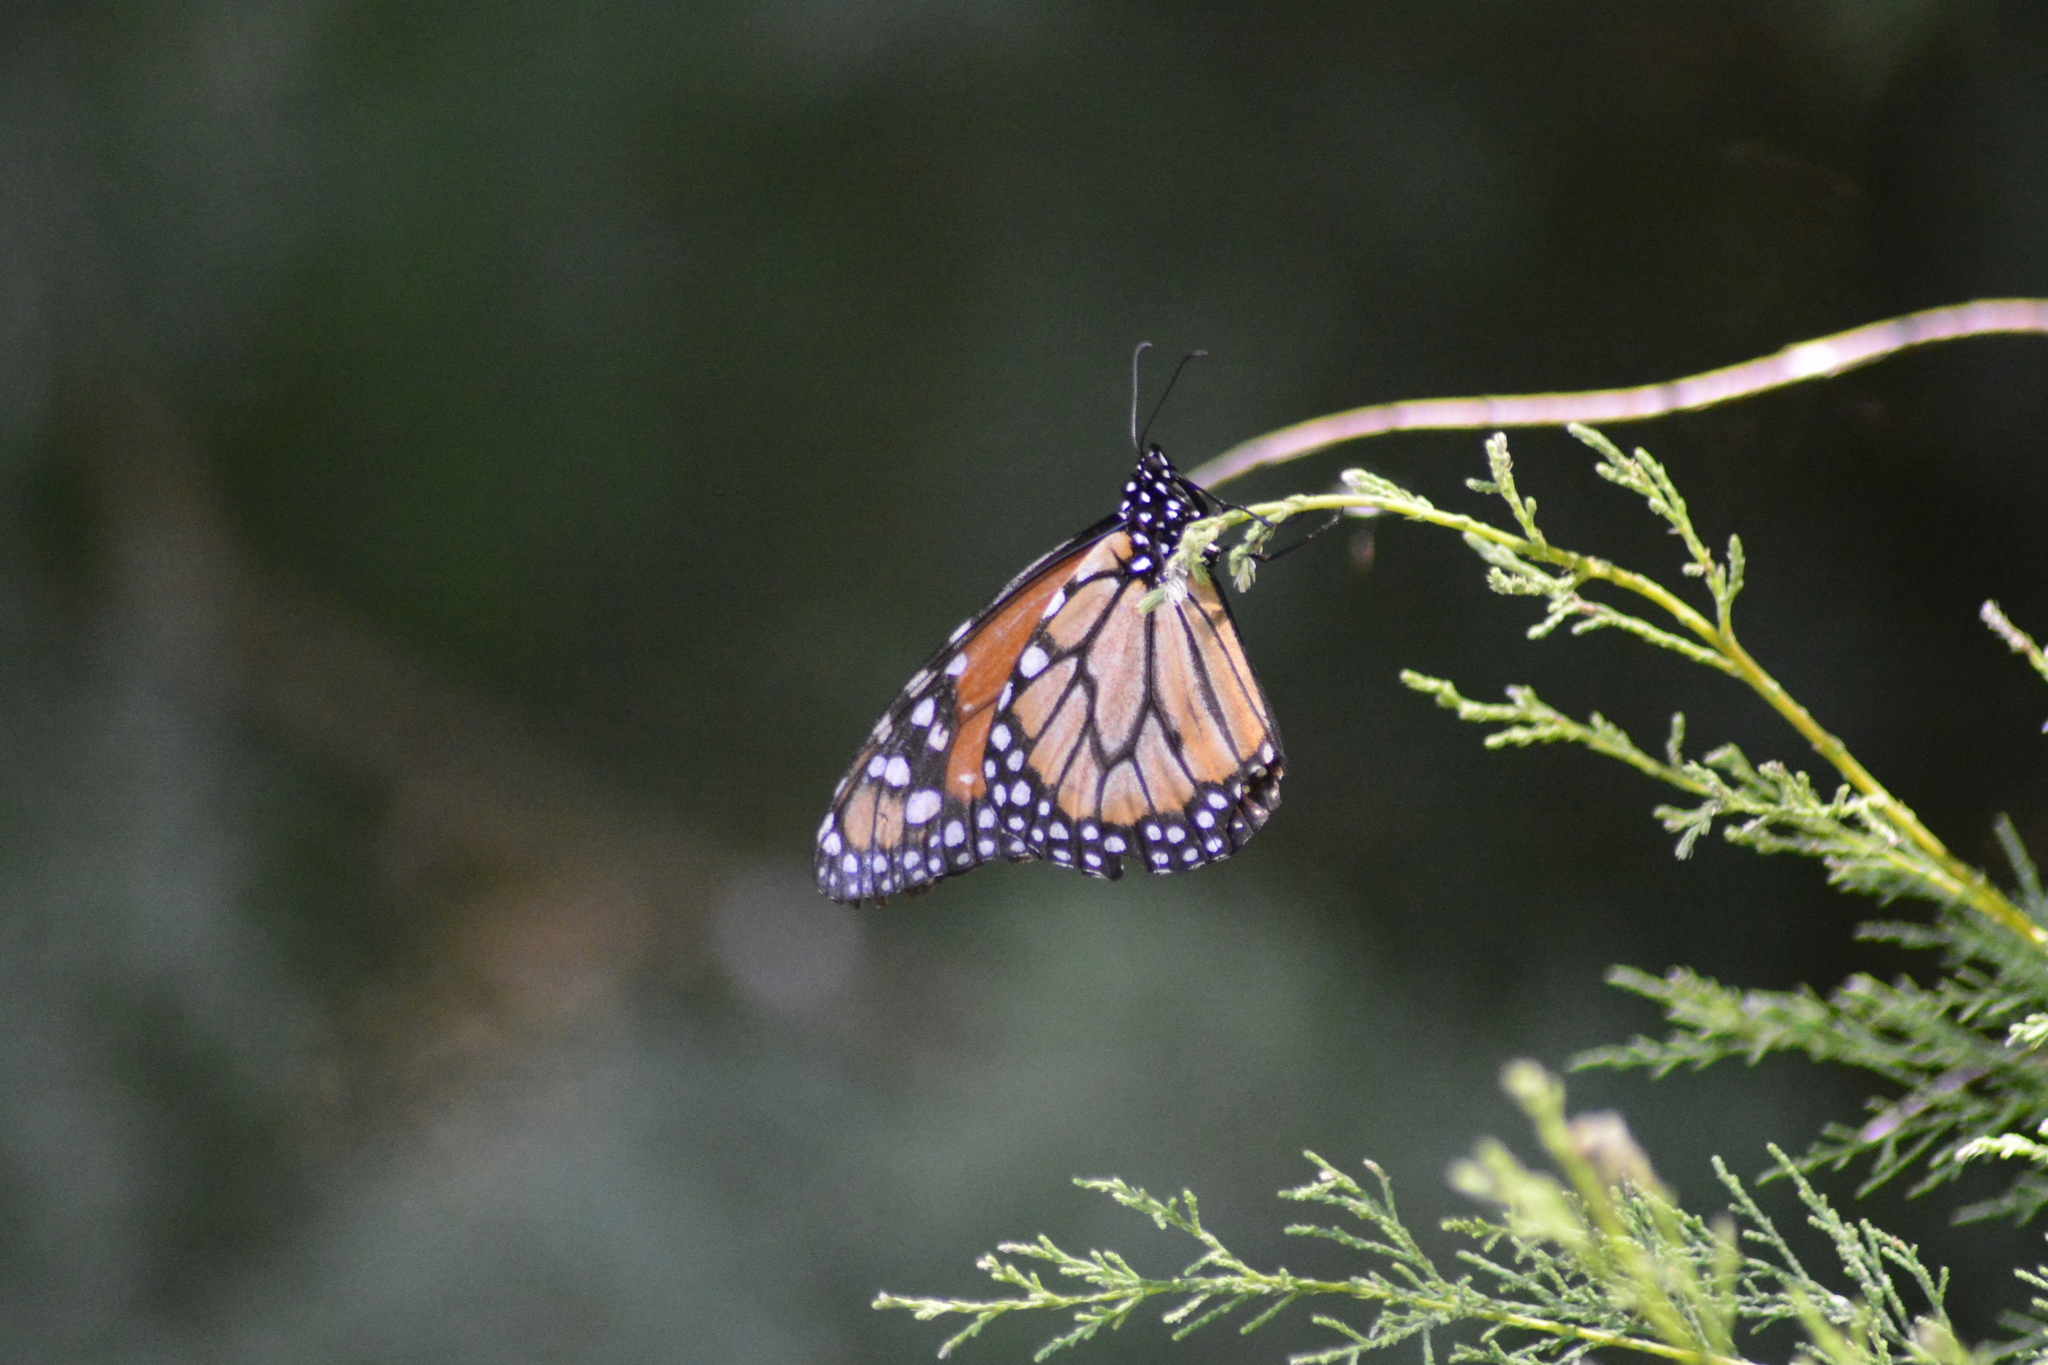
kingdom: Animalia
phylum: Arthropoda
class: Insecta
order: Lepidoptera
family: Nymphalidae
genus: Danaus
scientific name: Danaus erippus
